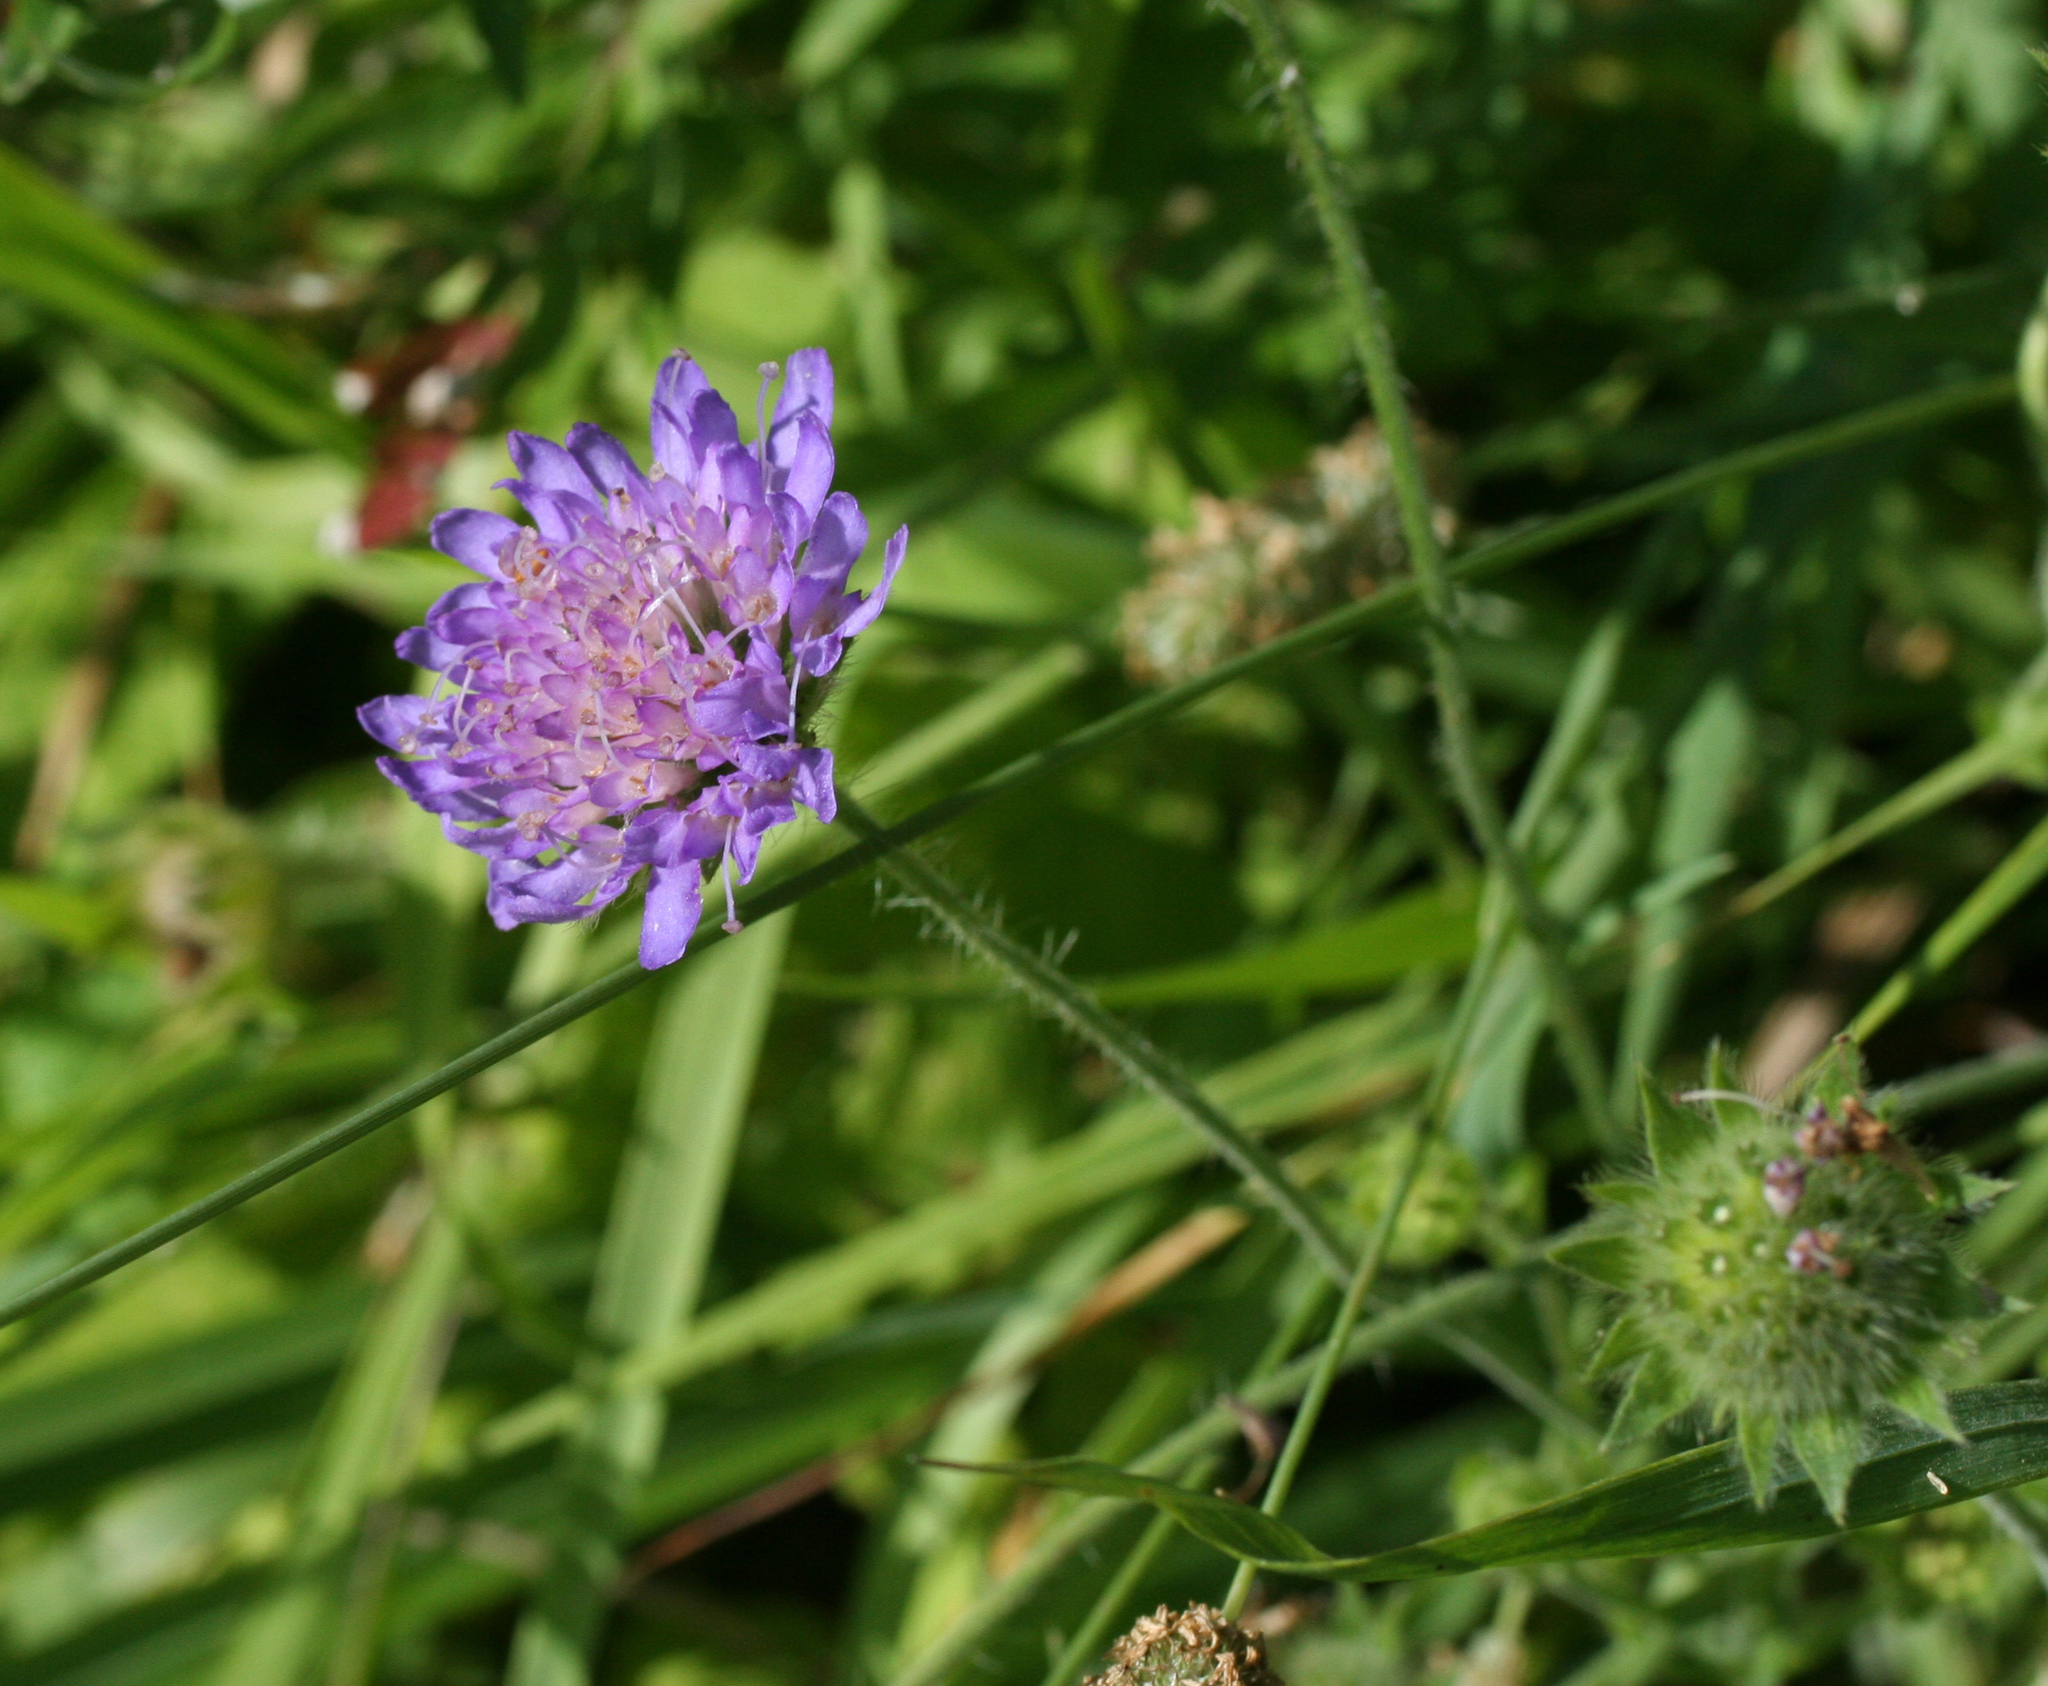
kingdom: Plantae
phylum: Tracheophyta
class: Magnoliopsida
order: Dipsacales
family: Caprifoliaceae
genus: Knautia
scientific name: Knautia arvensis
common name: Field scabiosa
